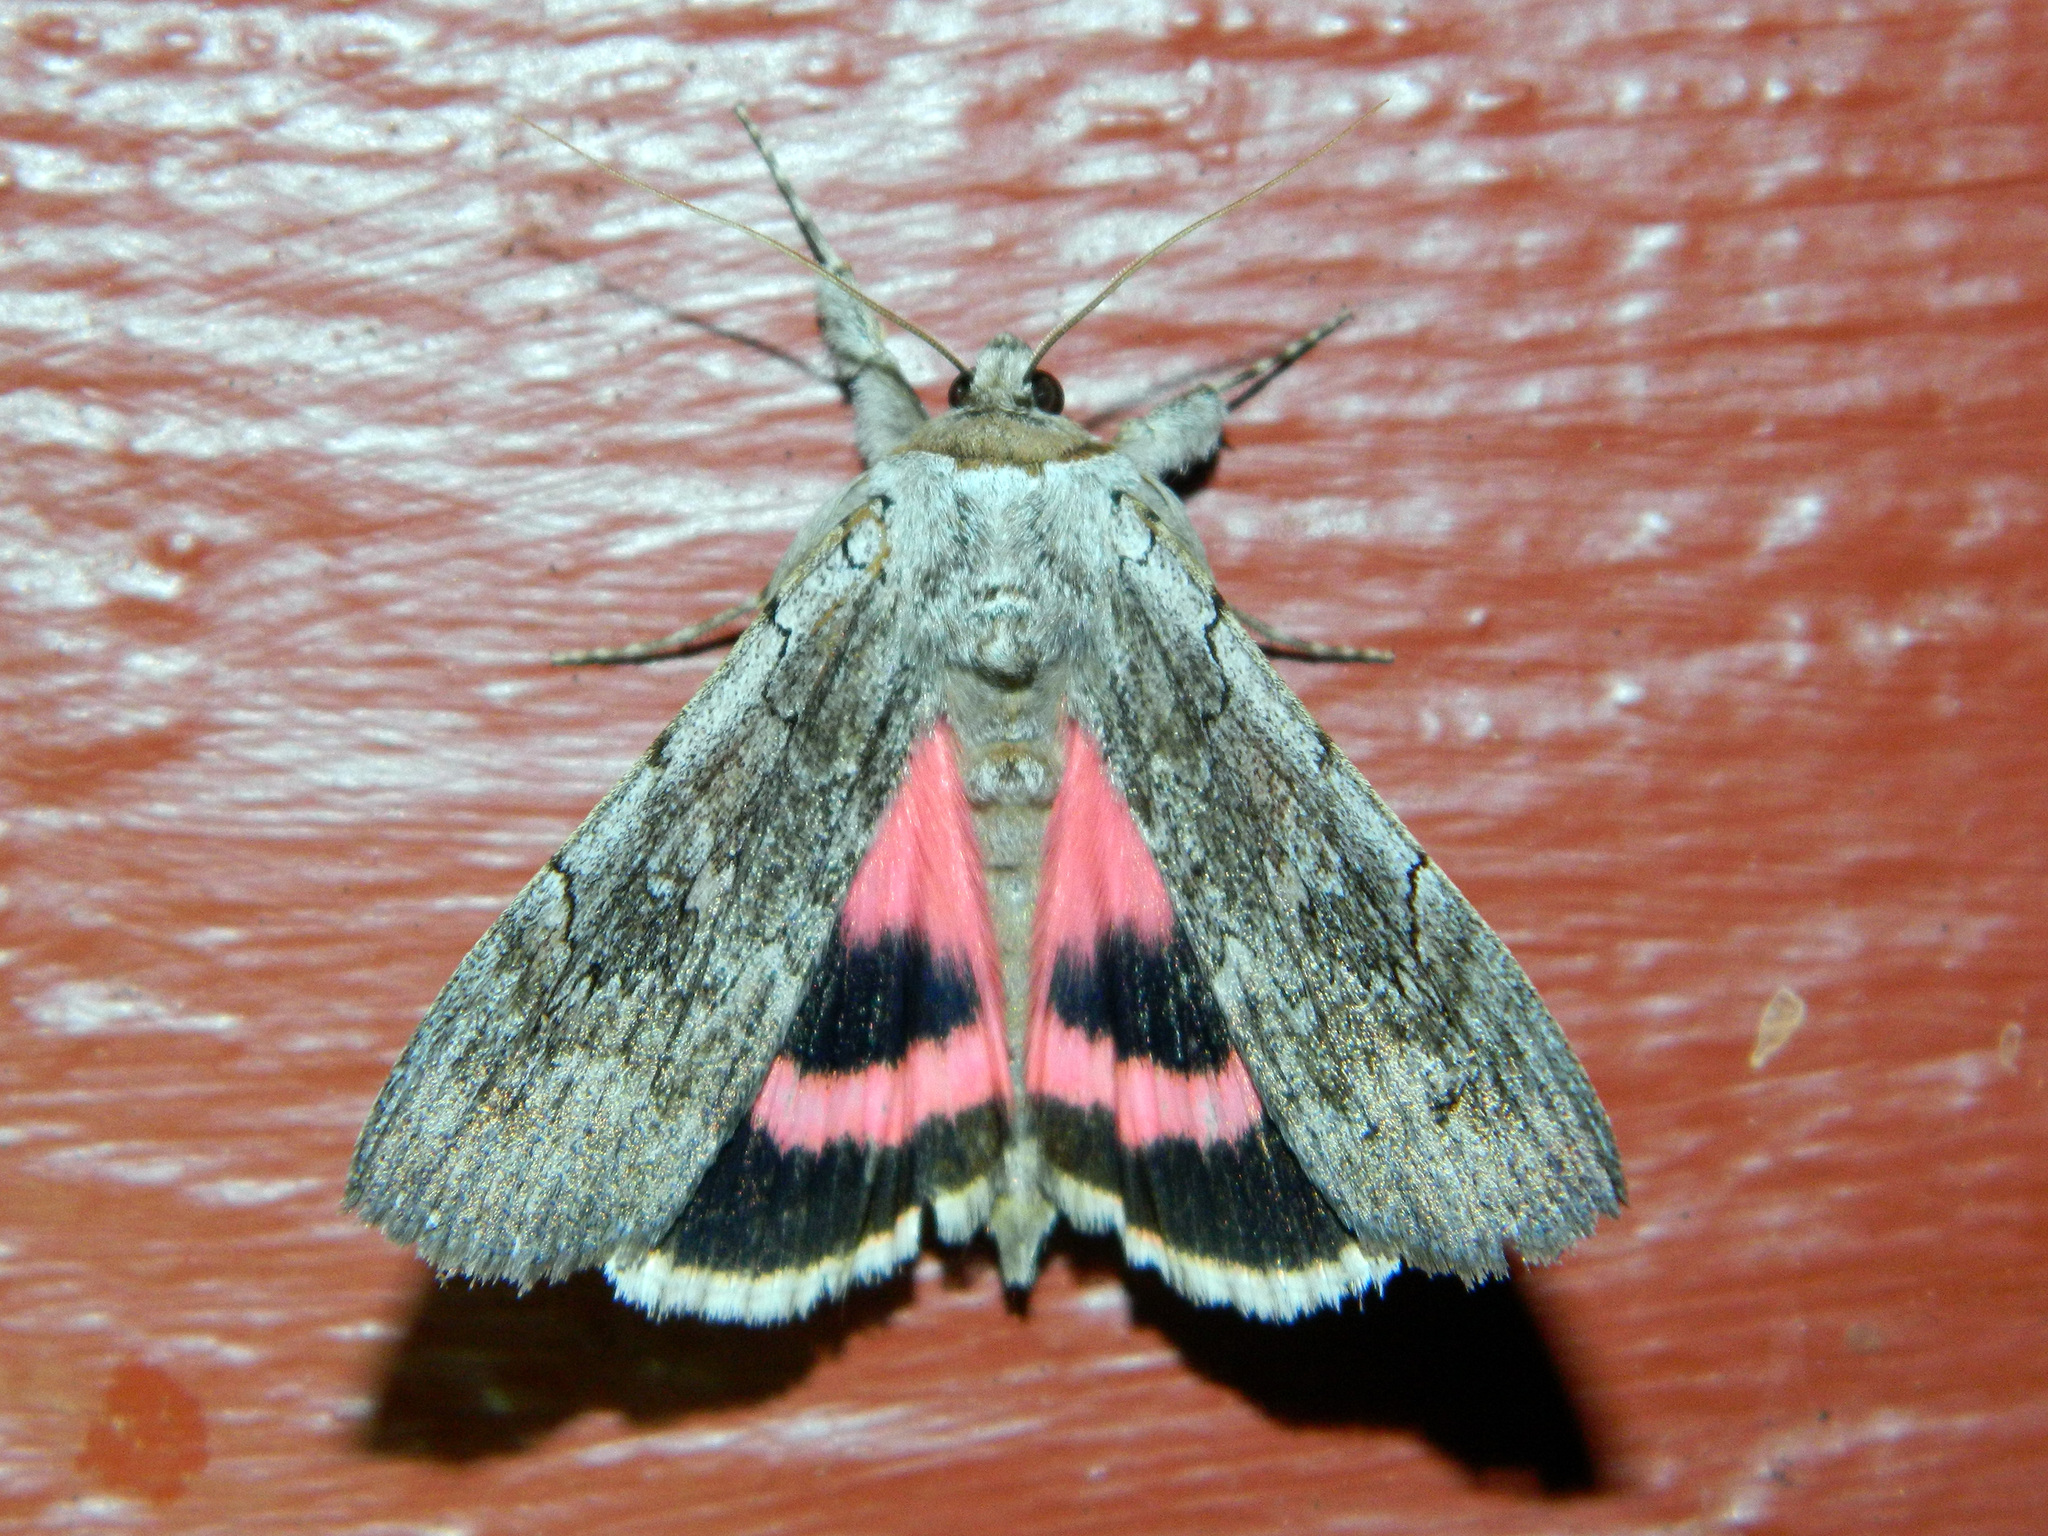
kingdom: Animalia
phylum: Arthropoda
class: Insecta
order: Lepidoptera
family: Erebidae
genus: Catocala
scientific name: Catocala concumbens
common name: Pink underwing
